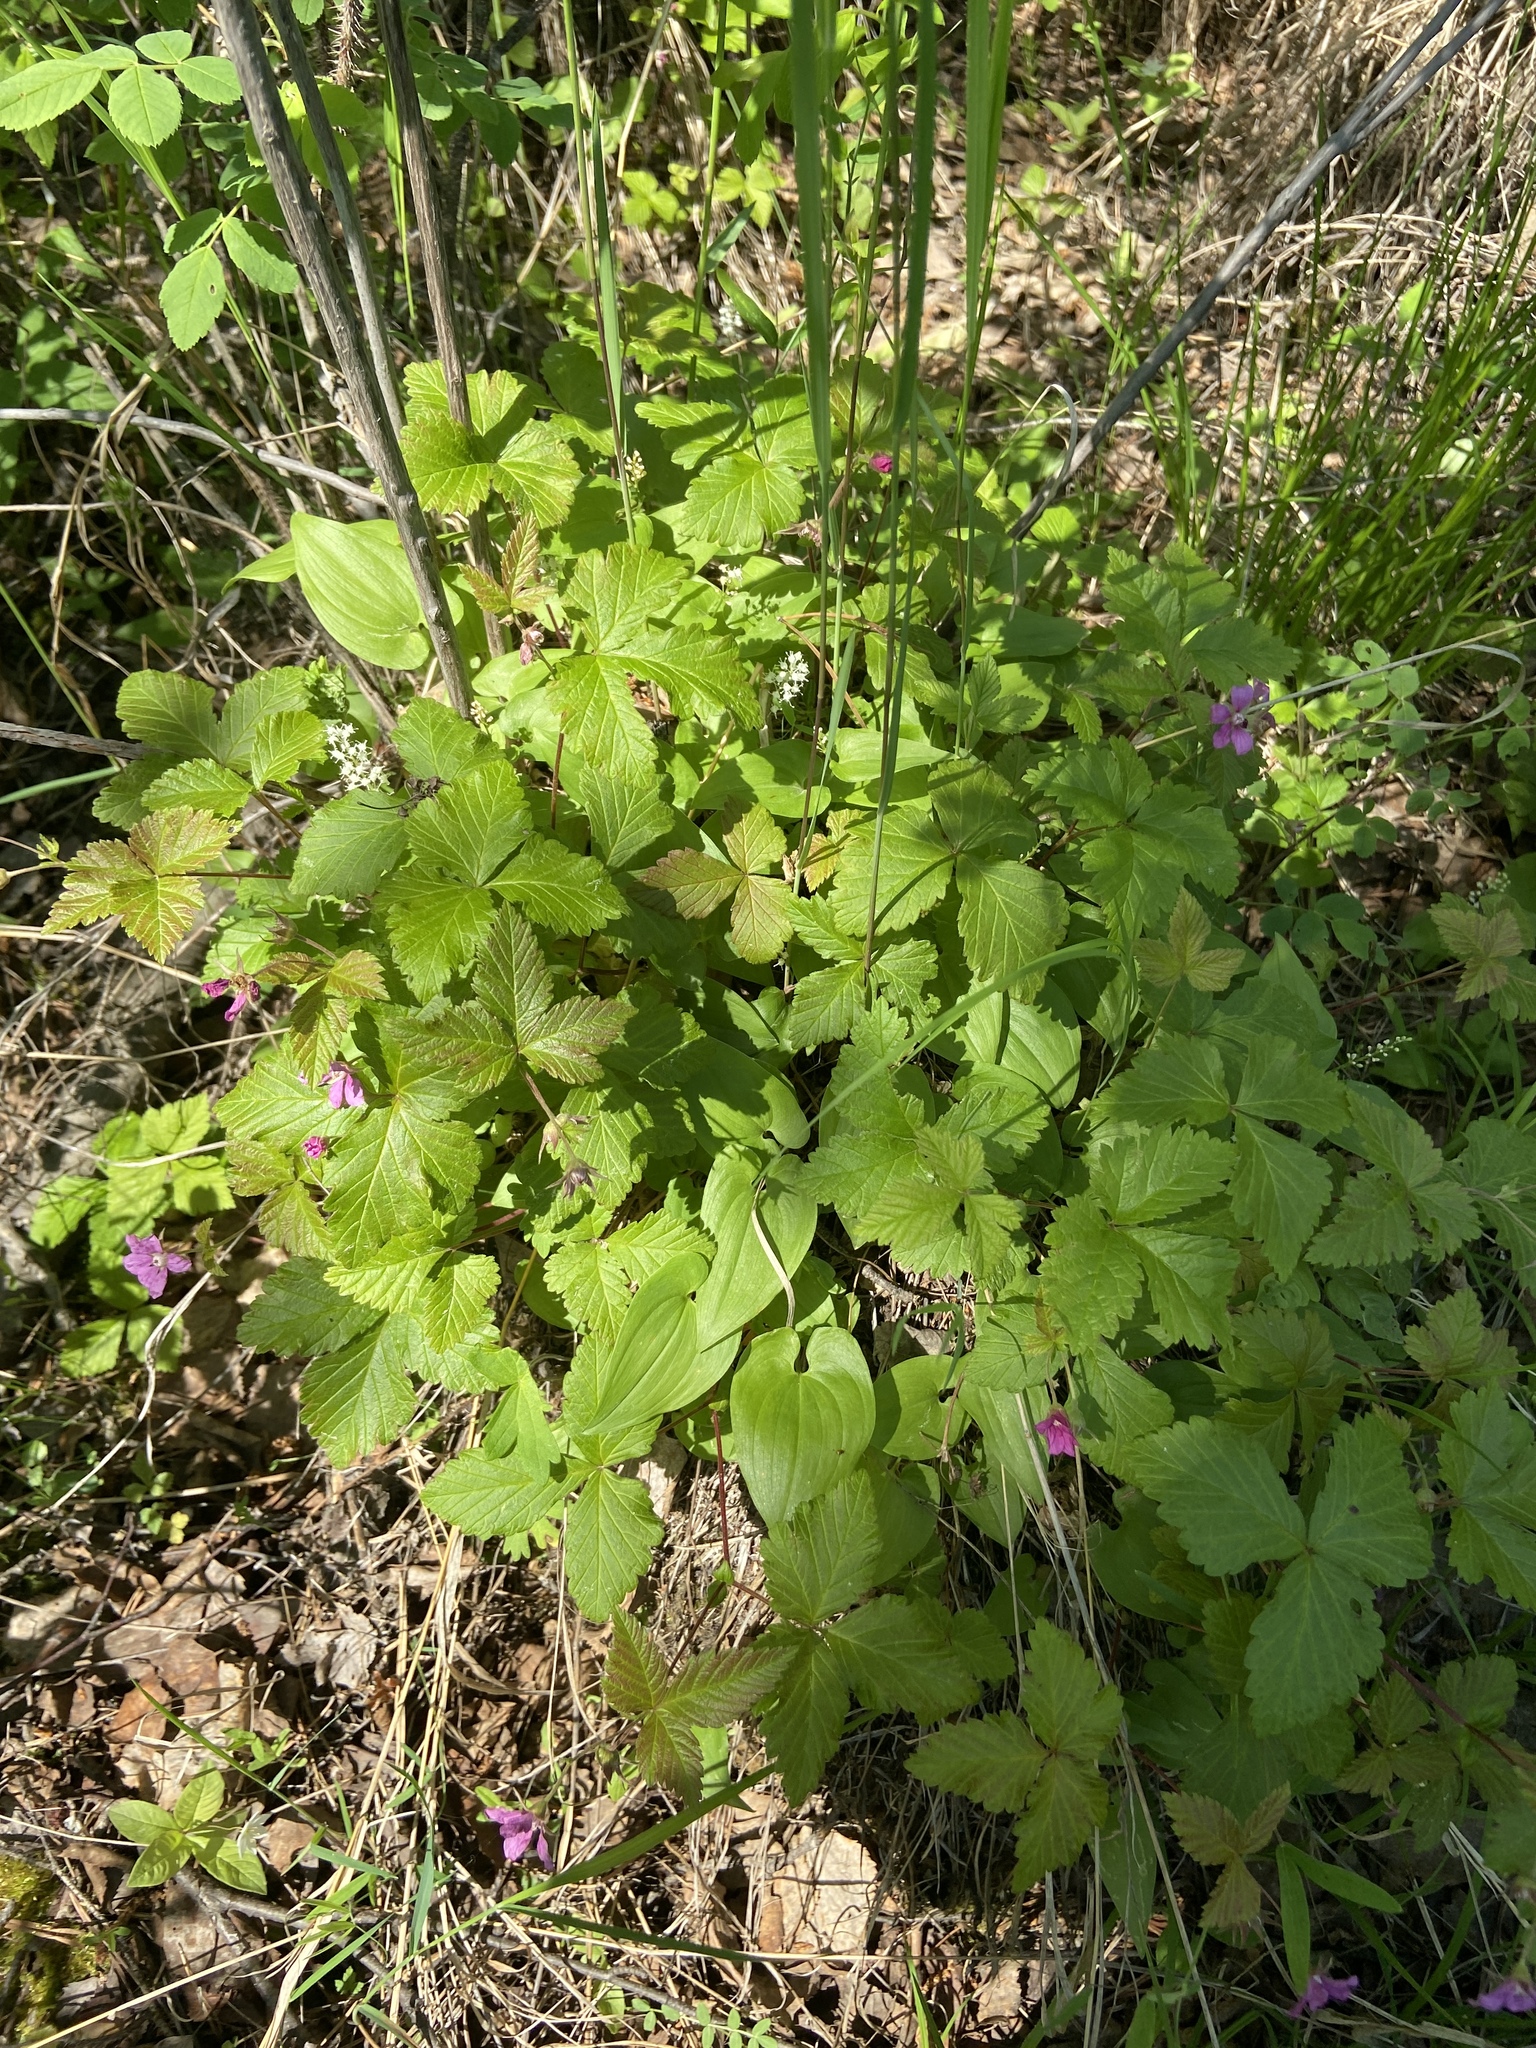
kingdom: Plantae
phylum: Tracheophyta
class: Magnoliopsida
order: Rosales
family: Rosaceae
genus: Rubus
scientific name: Rubus arcticus
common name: Arctic bramble
